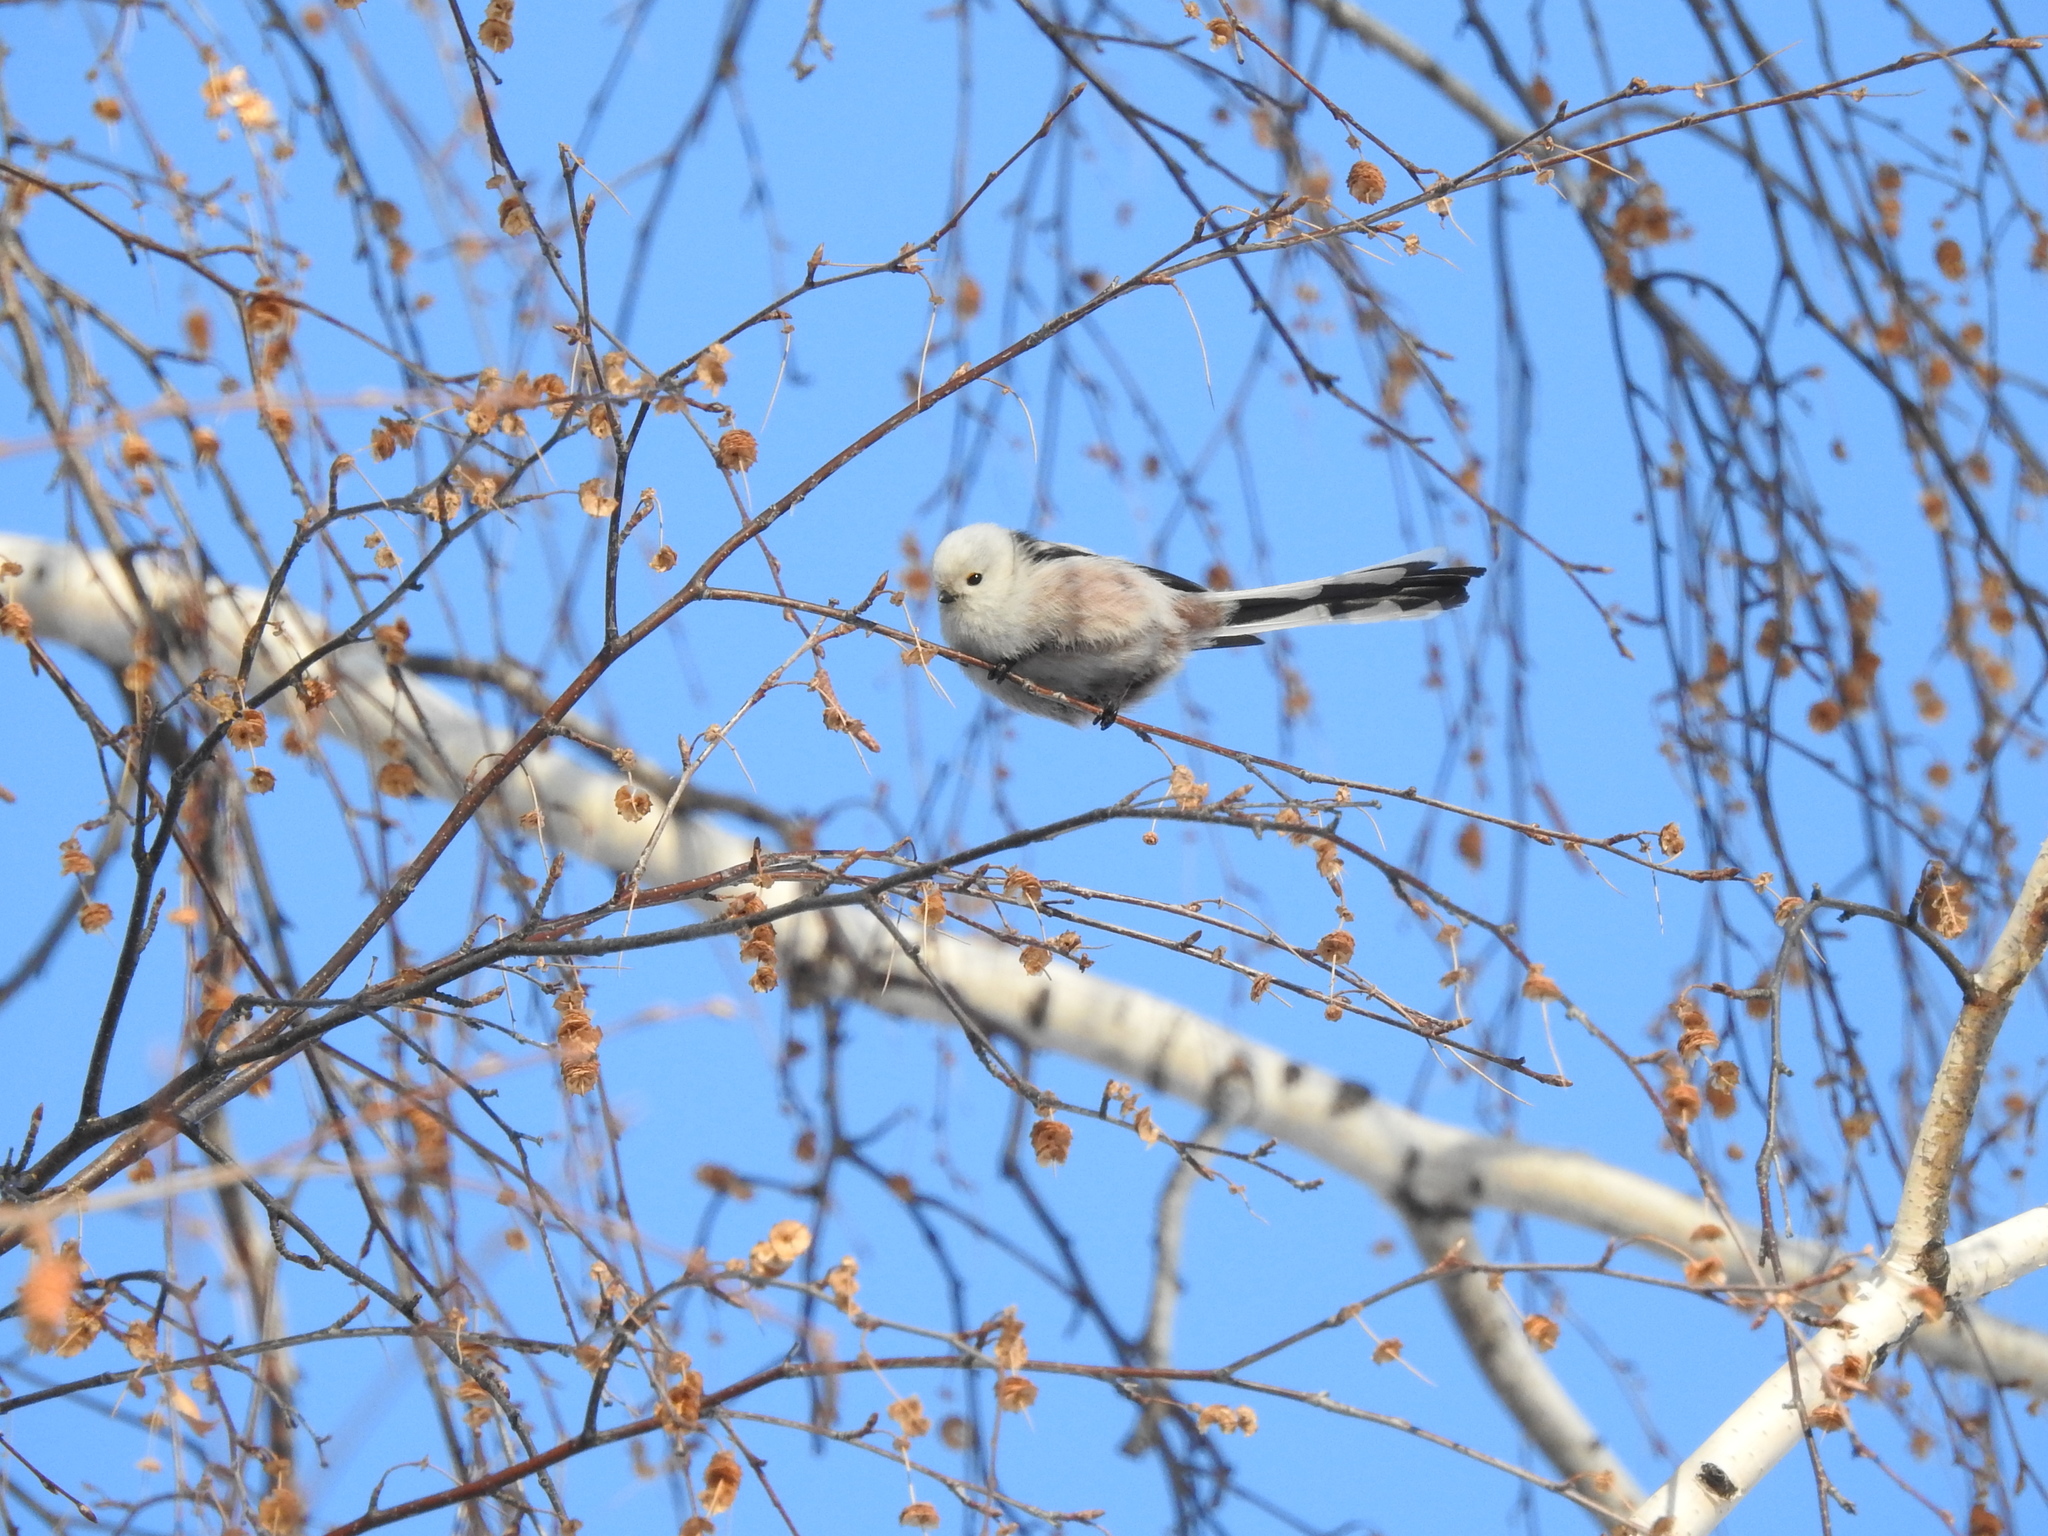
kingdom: Animalia
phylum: Chordata
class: Aves
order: Passeriformes
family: Aegithalidae
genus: Aegithalos
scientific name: Aegithalos caudatus
